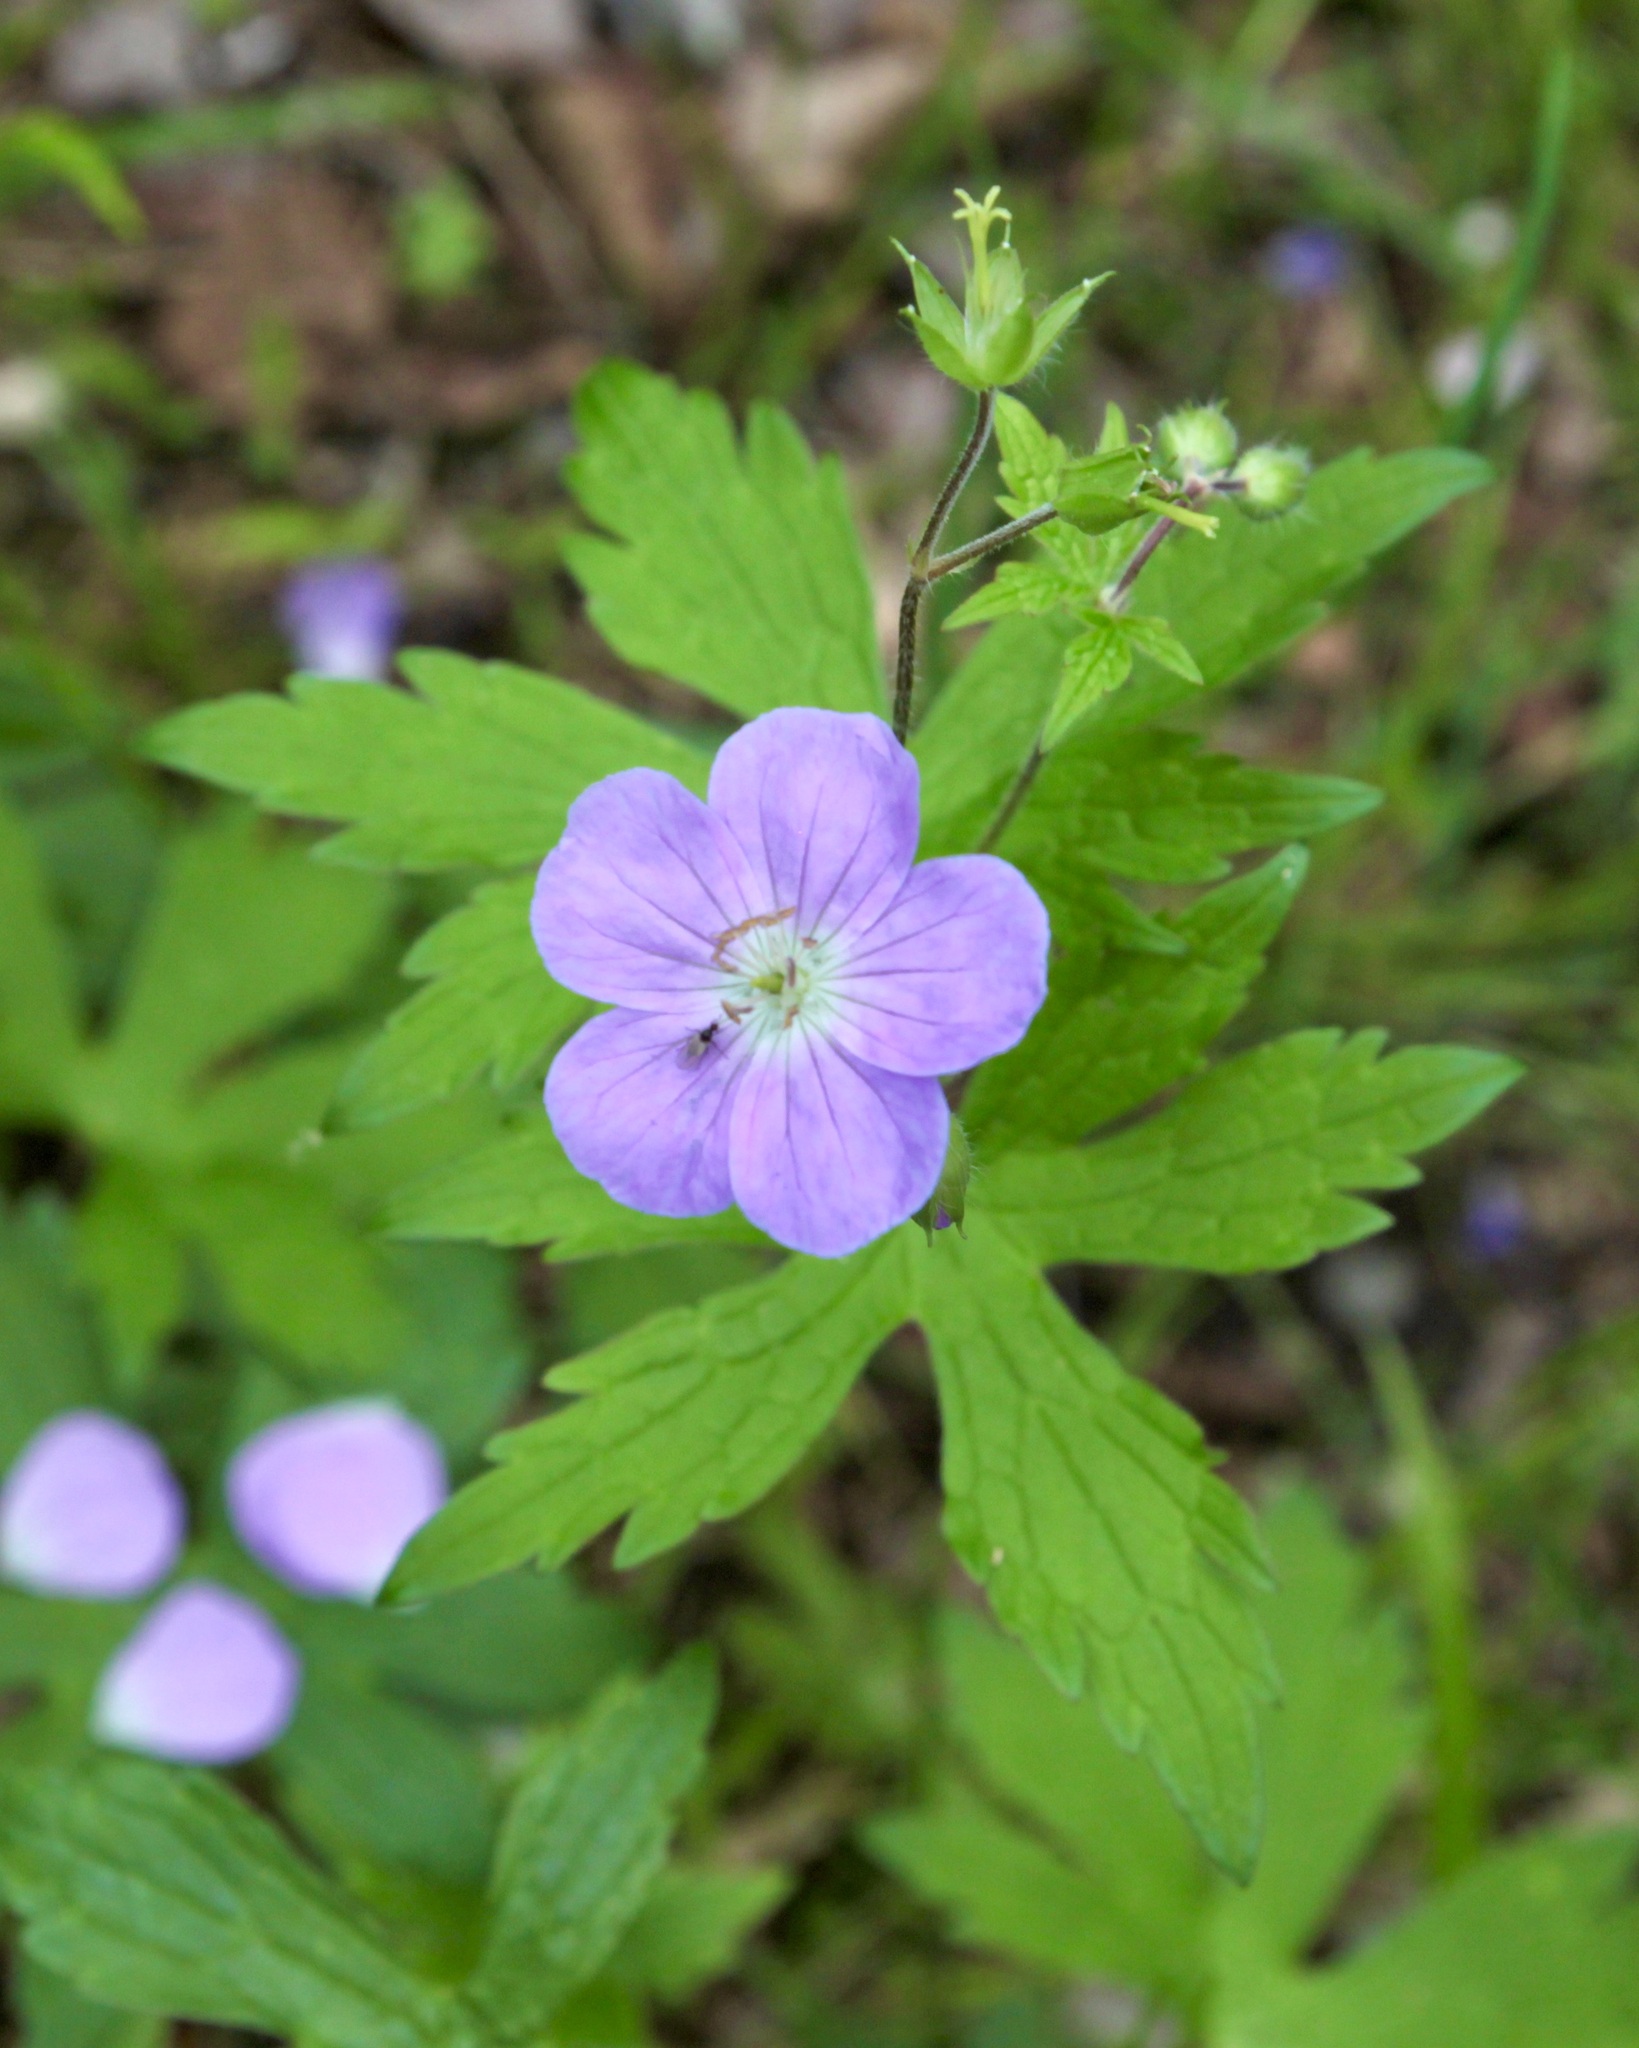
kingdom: Plantae
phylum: Tracheophyta
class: Magnoliopsida
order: Geraniales
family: Geraniaceae
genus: Geranium
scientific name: Geranium maculatum
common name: Spotted geranium
